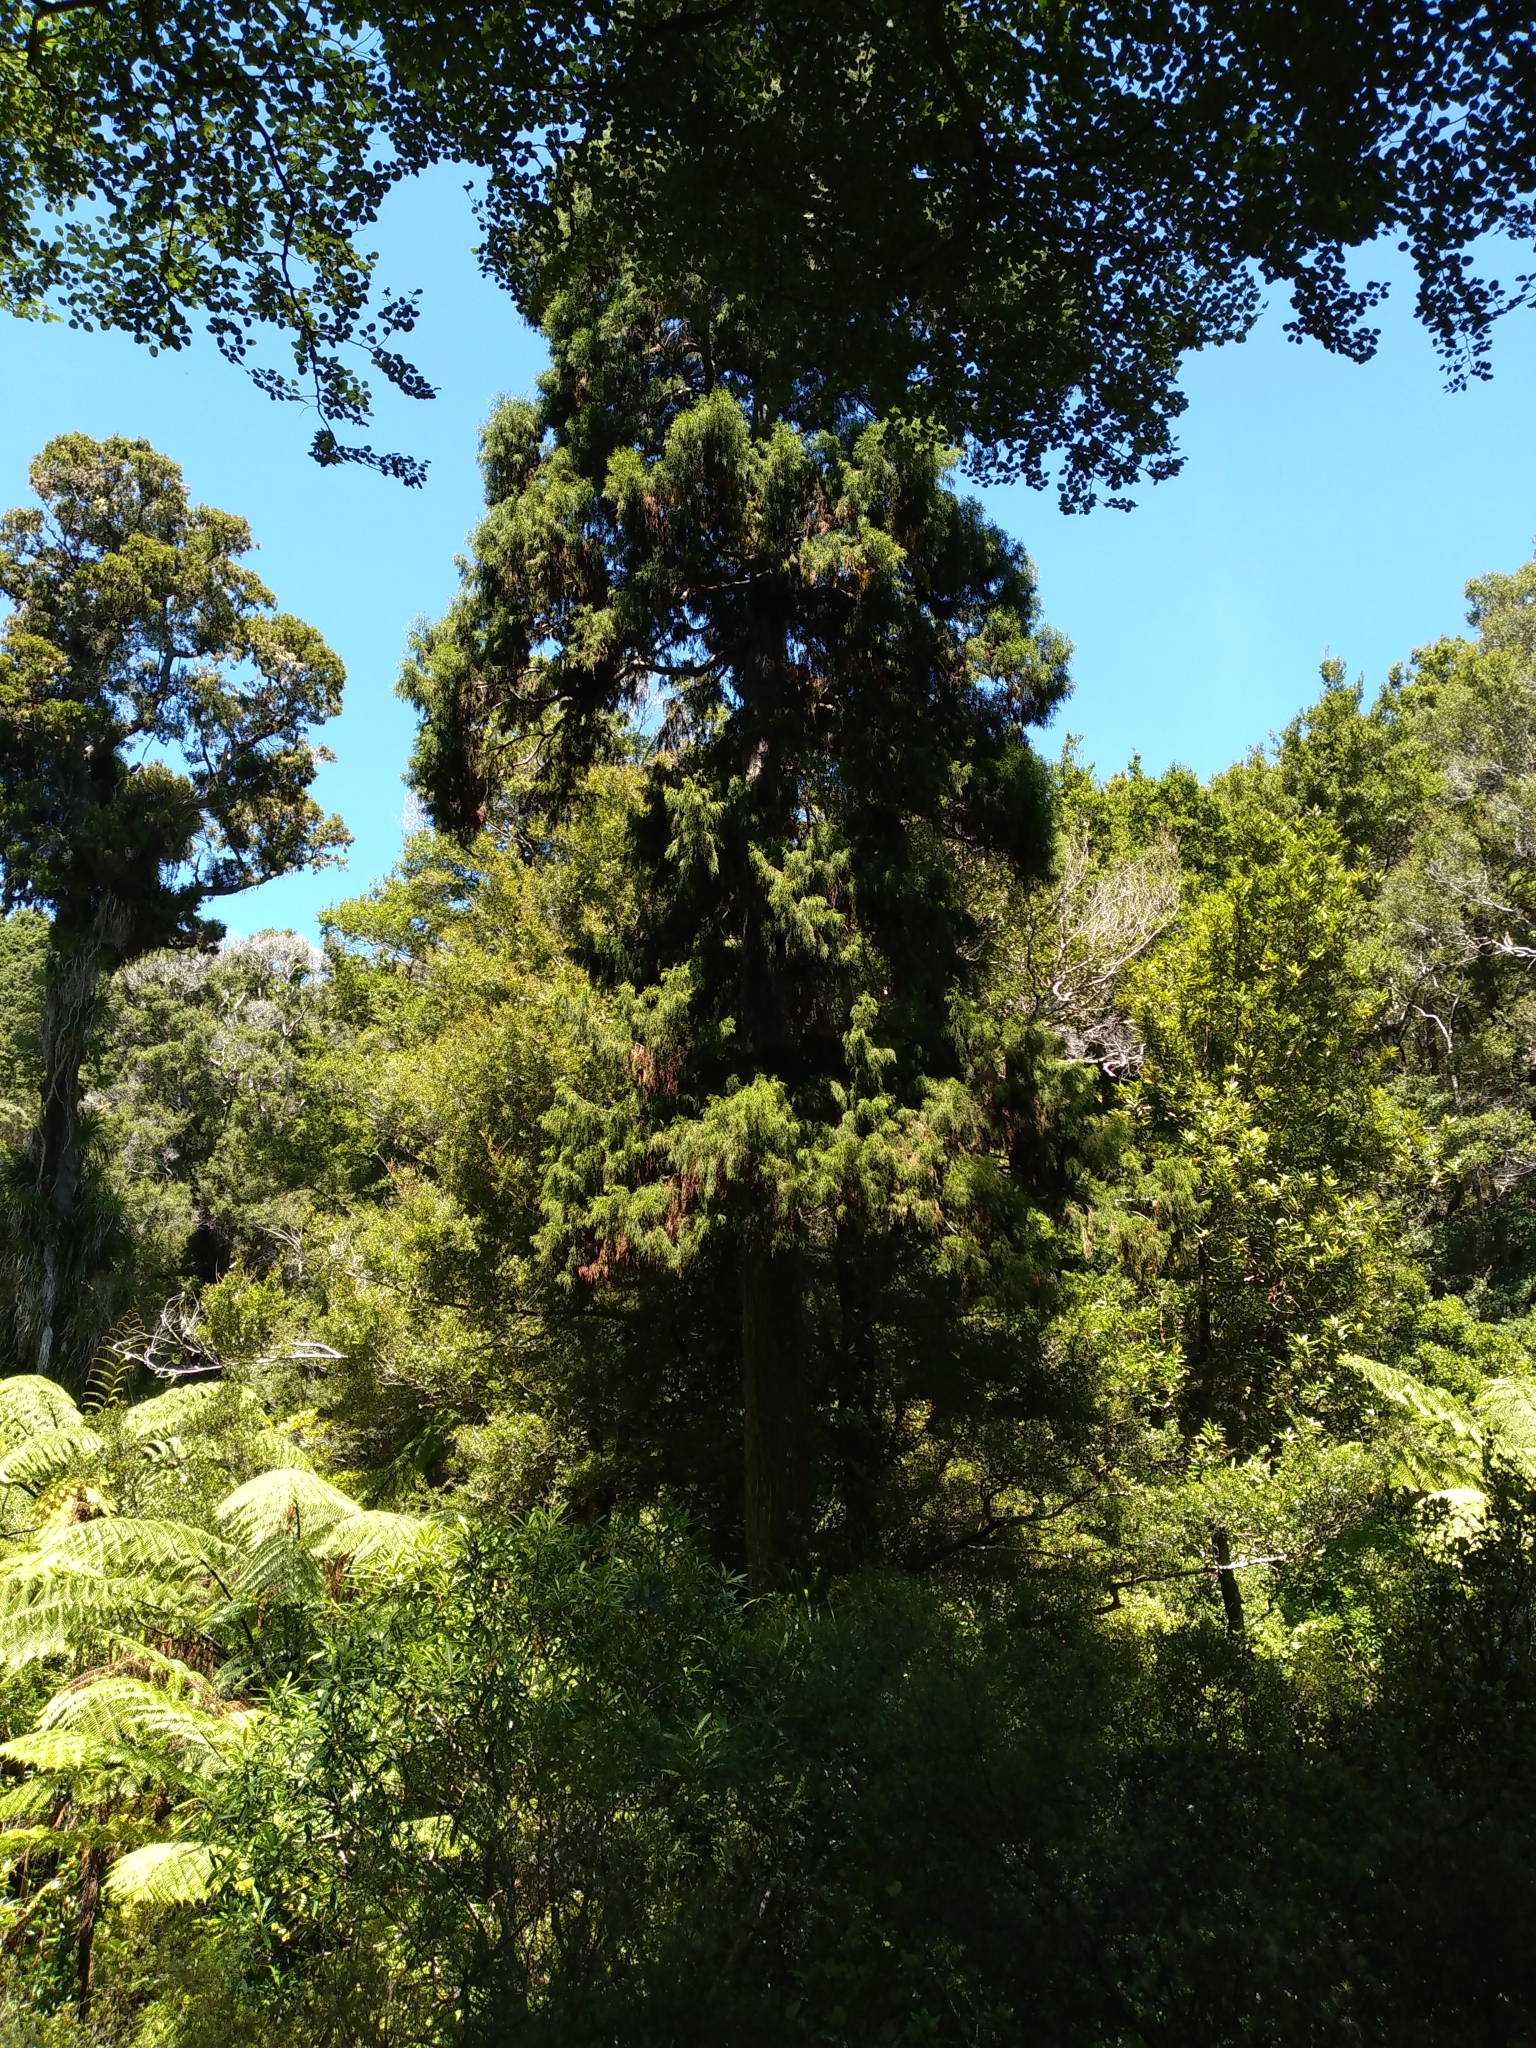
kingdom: Plantae
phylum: Tracheophyta
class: Pinopsida
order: Pinales
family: Podocarpaceae
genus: Dacrydium
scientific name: Dacrydium cupressinum
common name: Red pine
